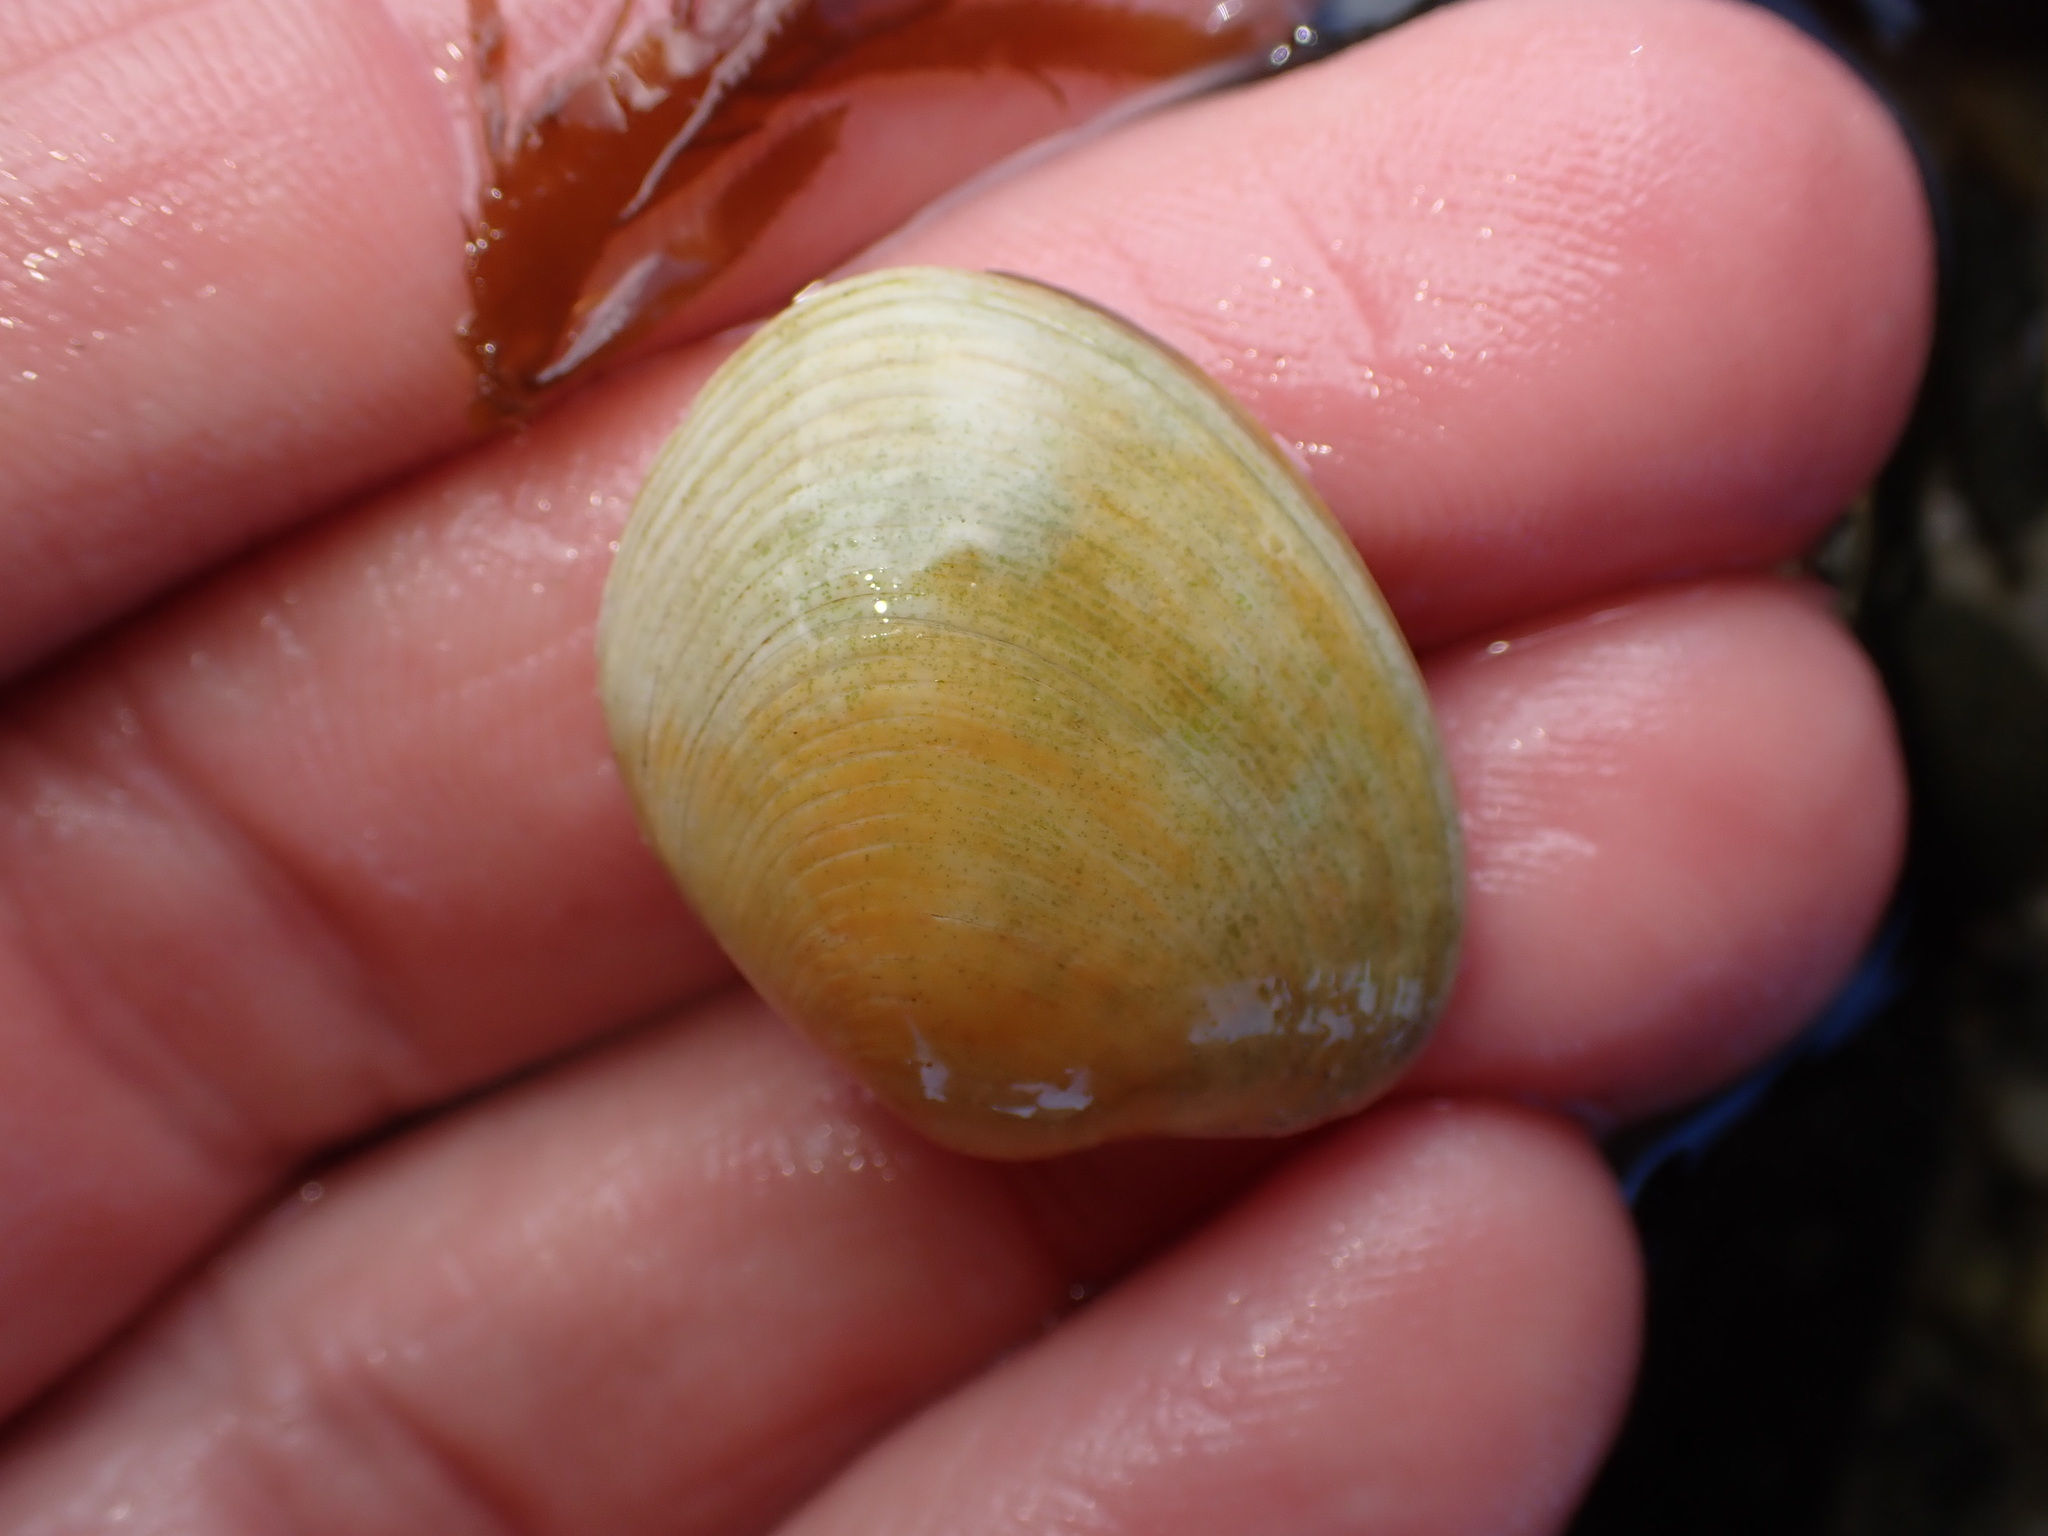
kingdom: Animalia
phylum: Mollusca
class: Bivalvia
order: Venerida
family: Veneridae
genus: Venerupis
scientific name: Venerupis largillierti
